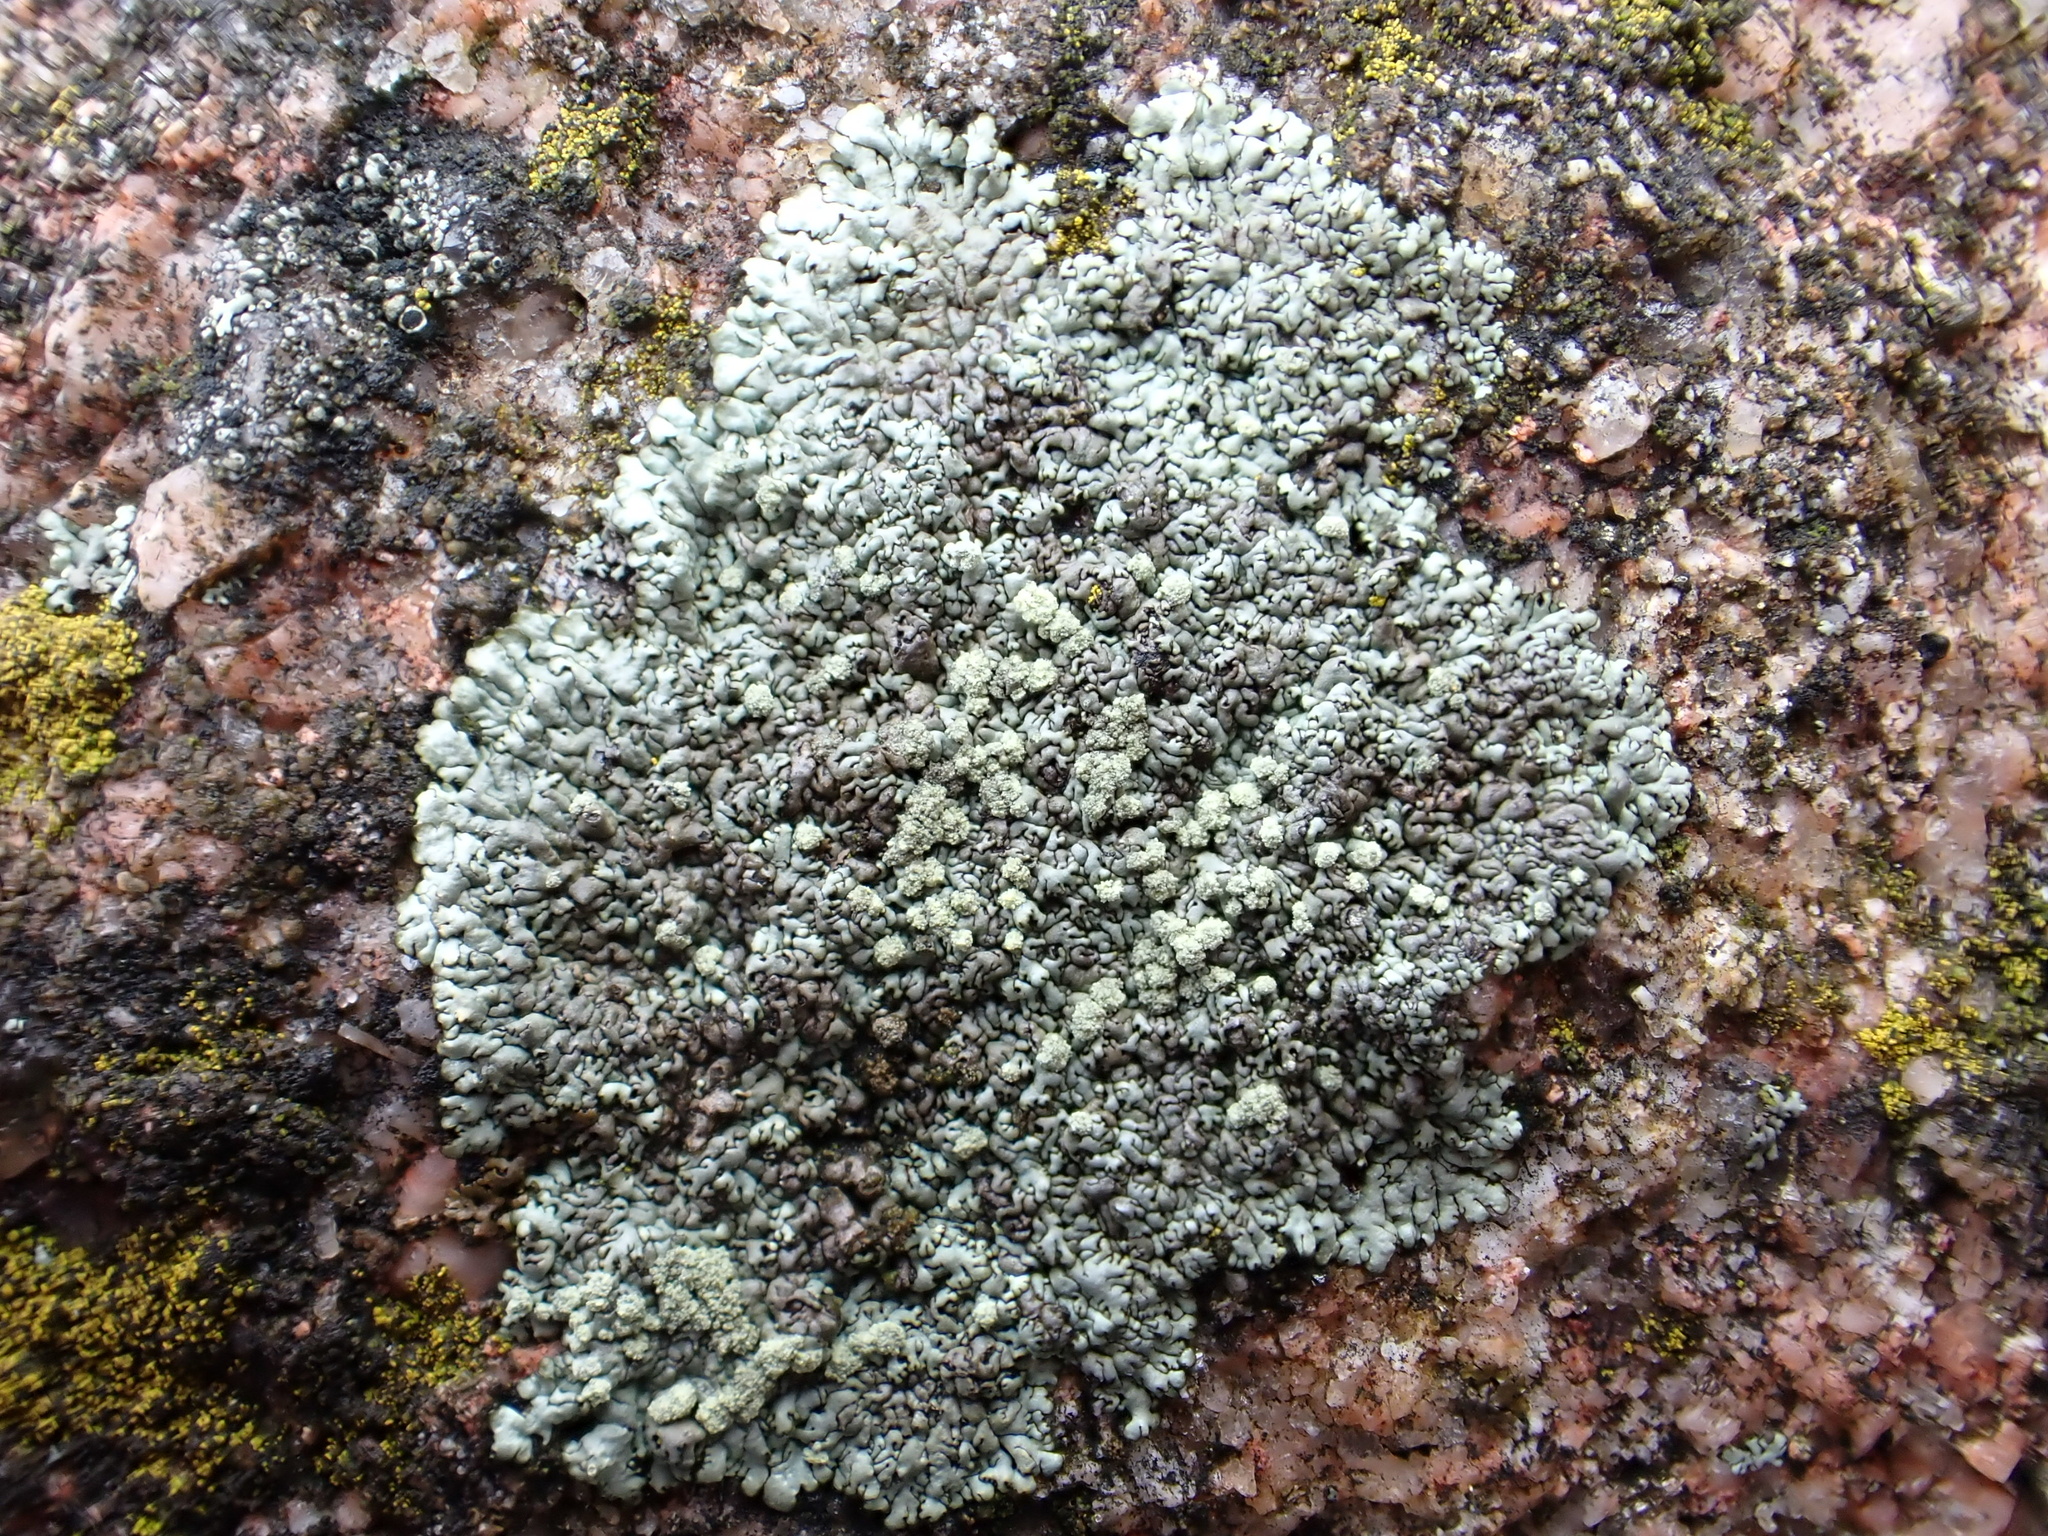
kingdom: Fungi
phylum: Ascomycota
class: Lecanoromycetes
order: Lecanorales
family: Parmeliaceae
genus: Xanthoparmelia
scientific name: Xanthoparmelia mougeotii
